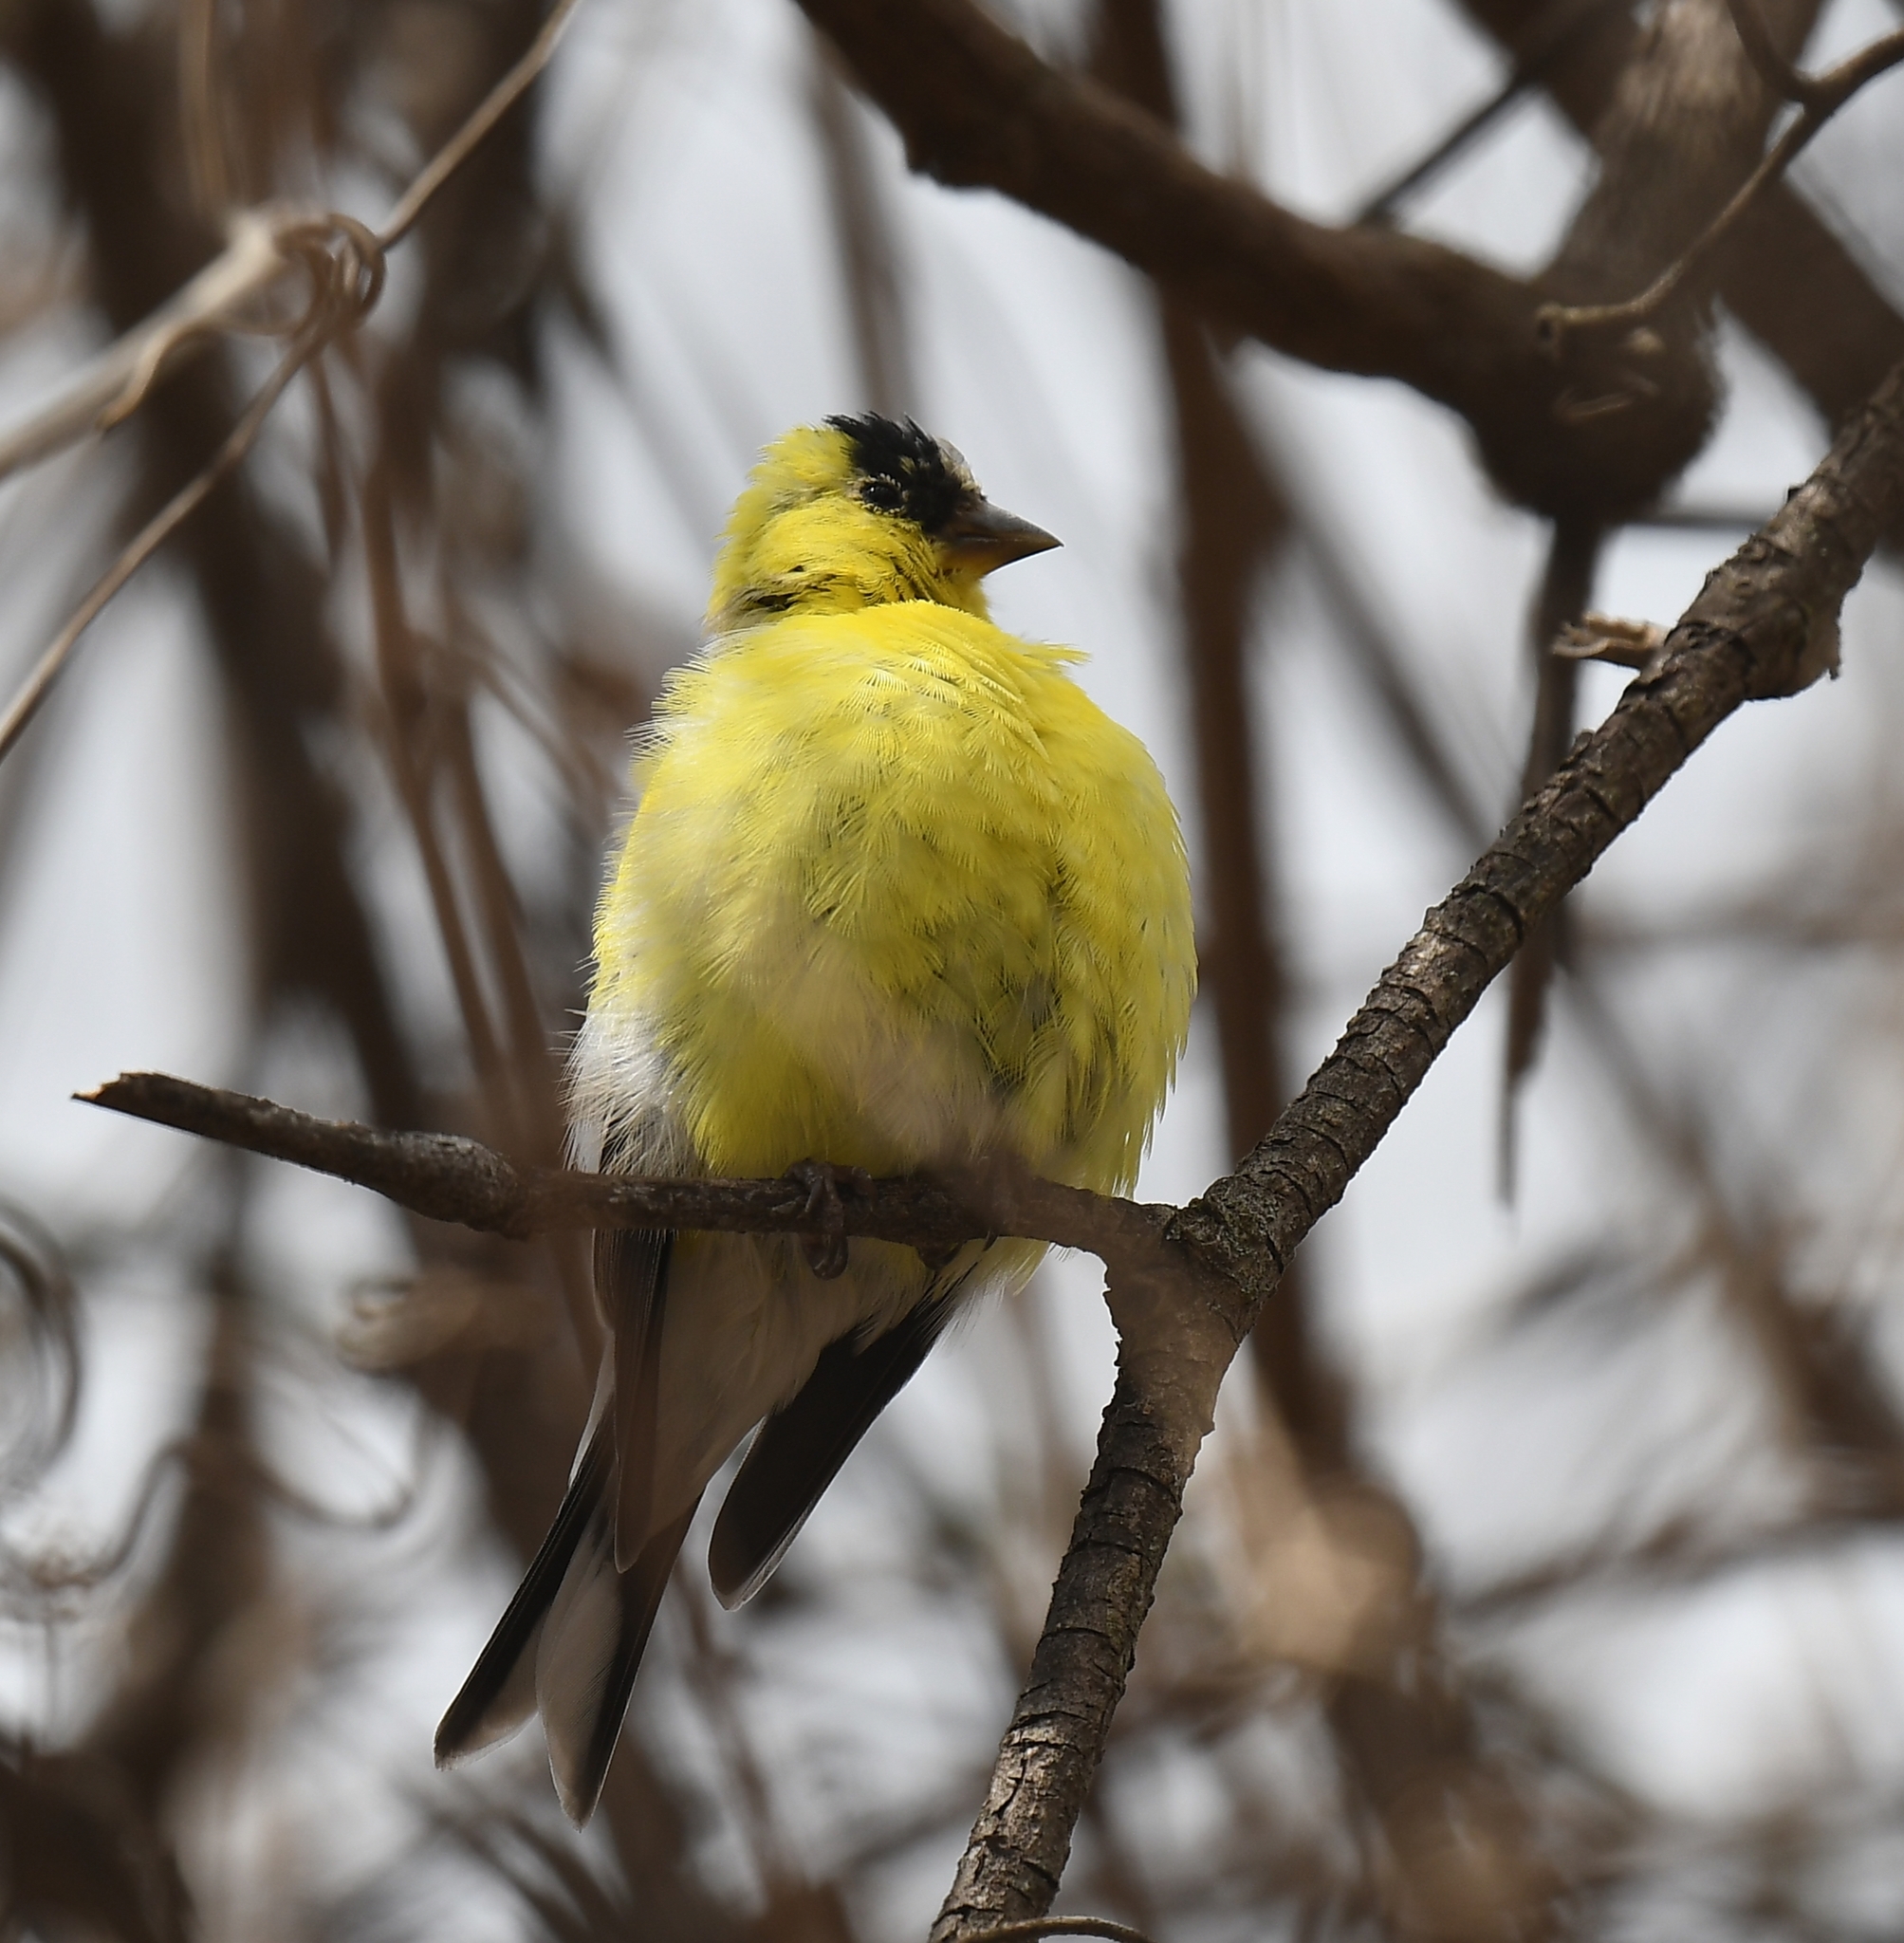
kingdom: Animalia
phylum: Chordata
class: Aves
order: Passeriformes
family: Fringillidae
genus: Spinus
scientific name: Spinus tristis
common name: American goldfinch
